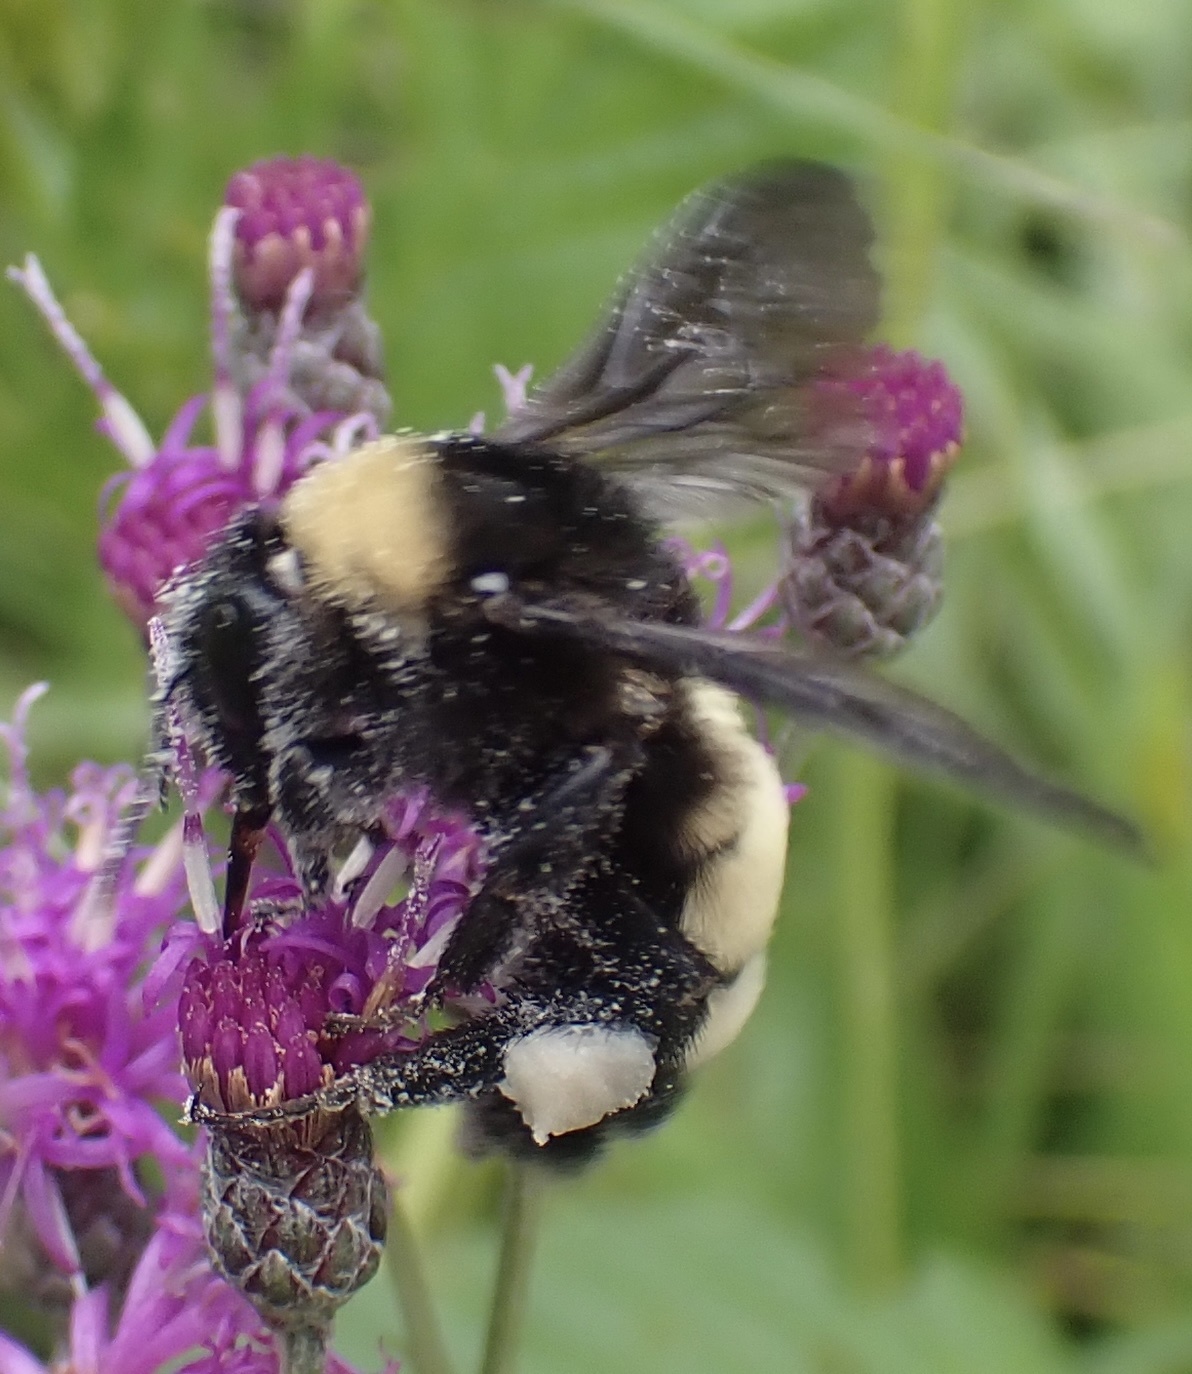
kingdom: Animalia
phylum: Arthropoda
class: Insecta
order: Hymenoptera
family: Apidae
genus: Bombus
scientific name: Bombus pensylvanicus
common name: Bumble bee
